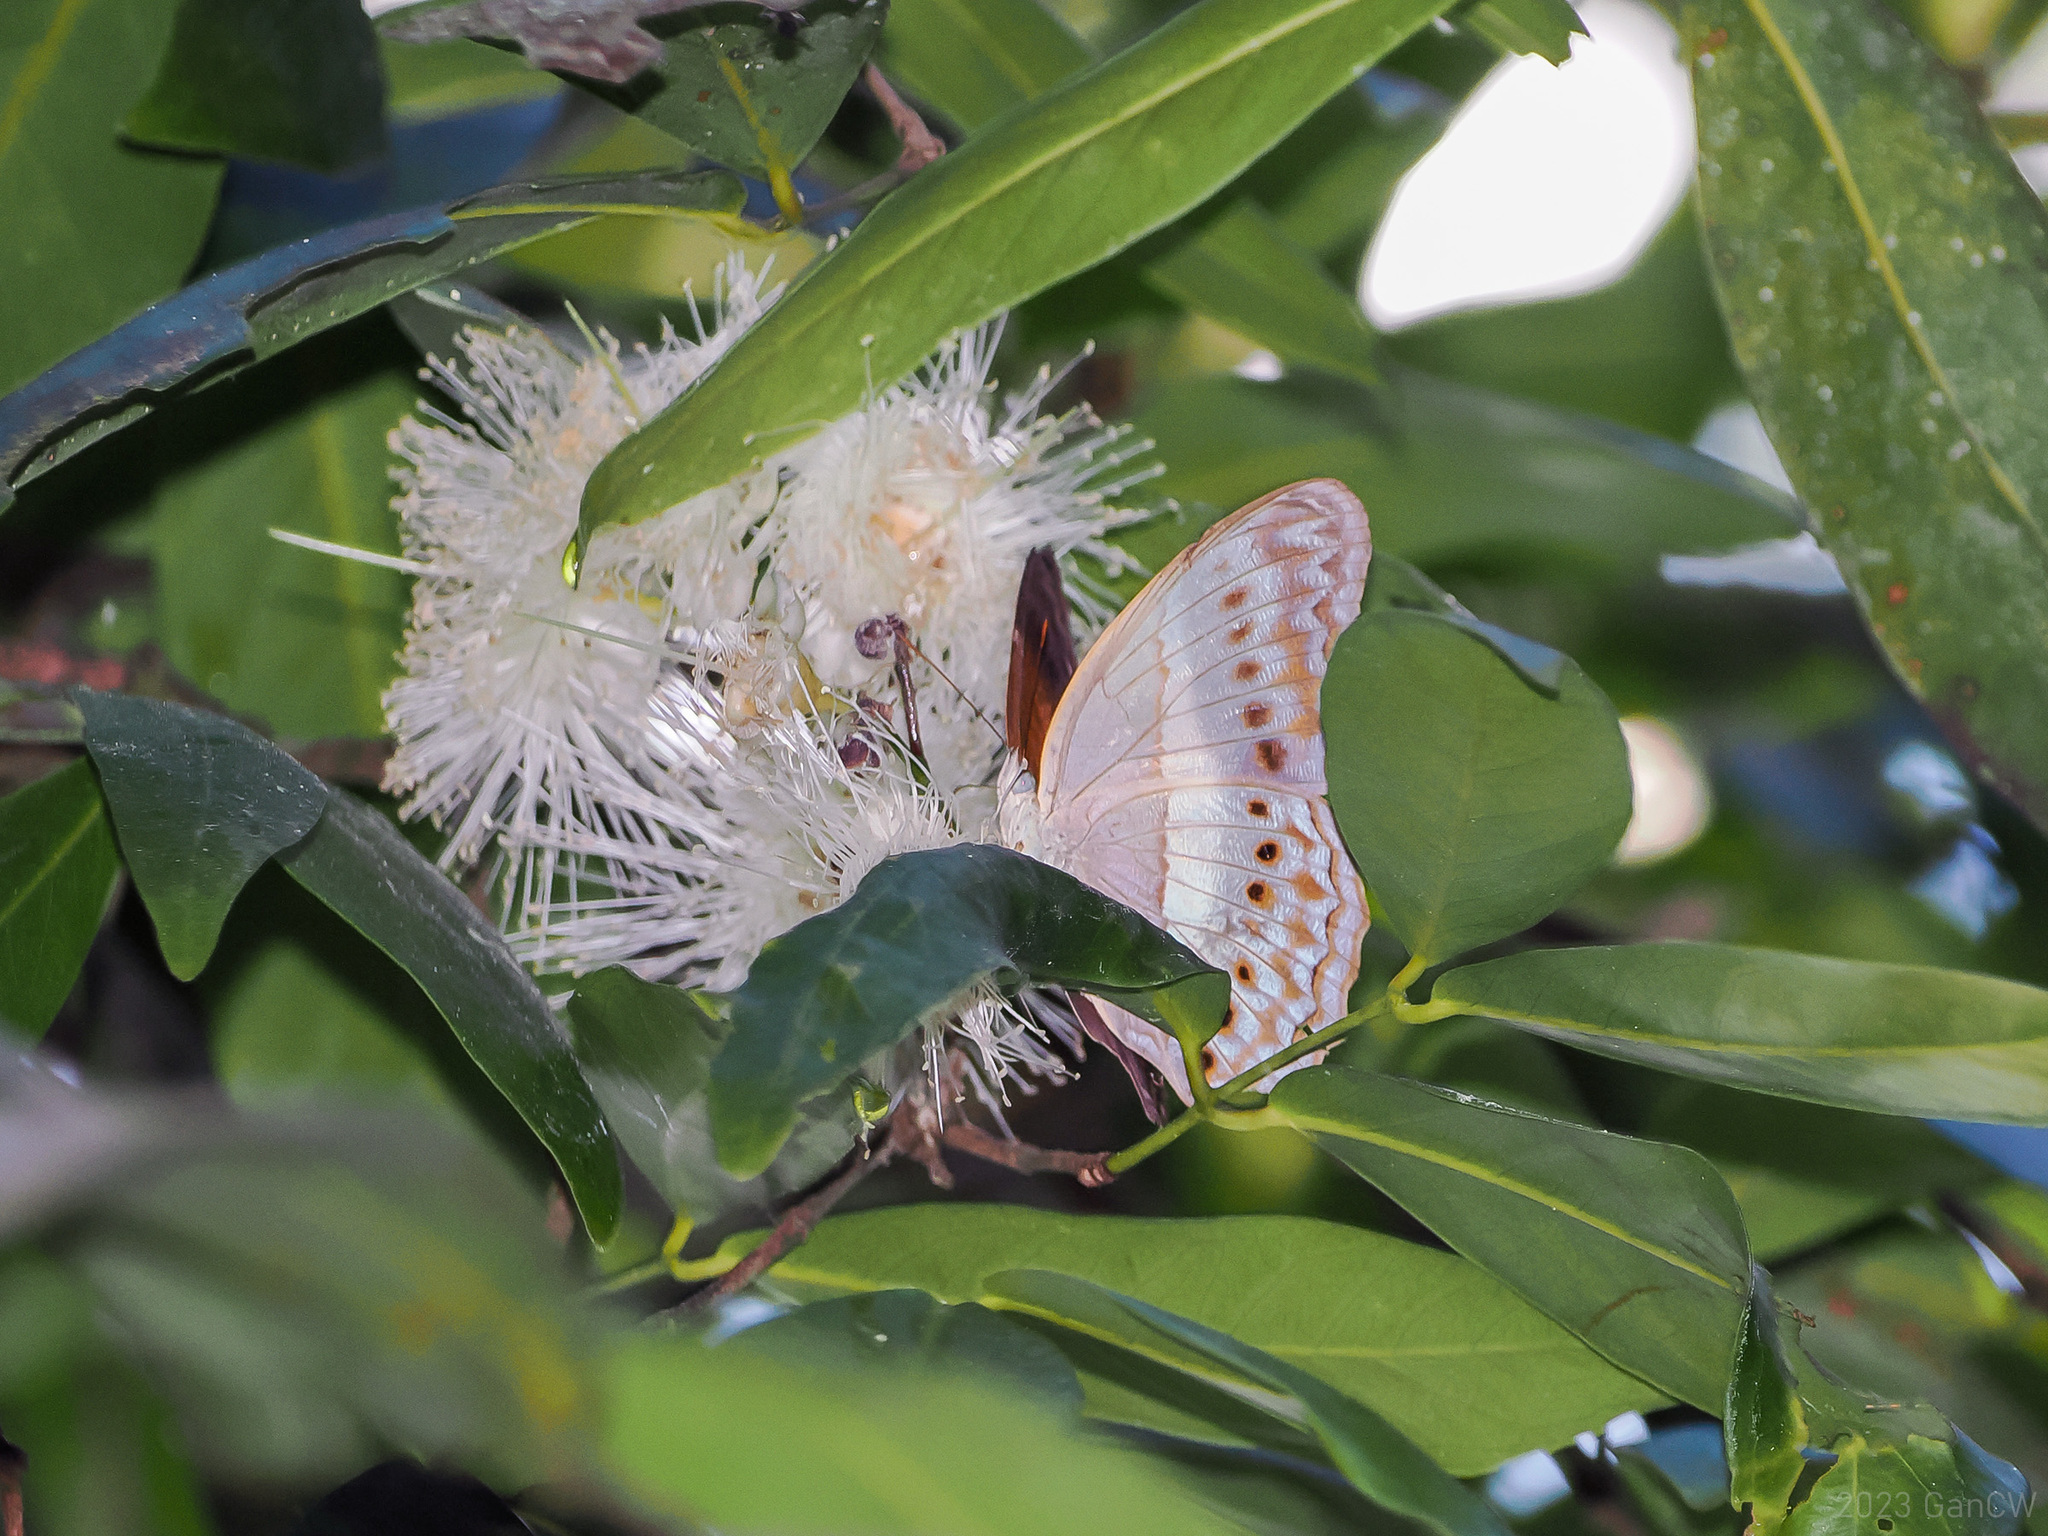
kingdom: Animalia
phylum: Arthropoda
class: Insecta
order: Lepidoptera
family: Nymphalidae
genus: Cirrochroa
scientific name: Cirrochroa semiramis
